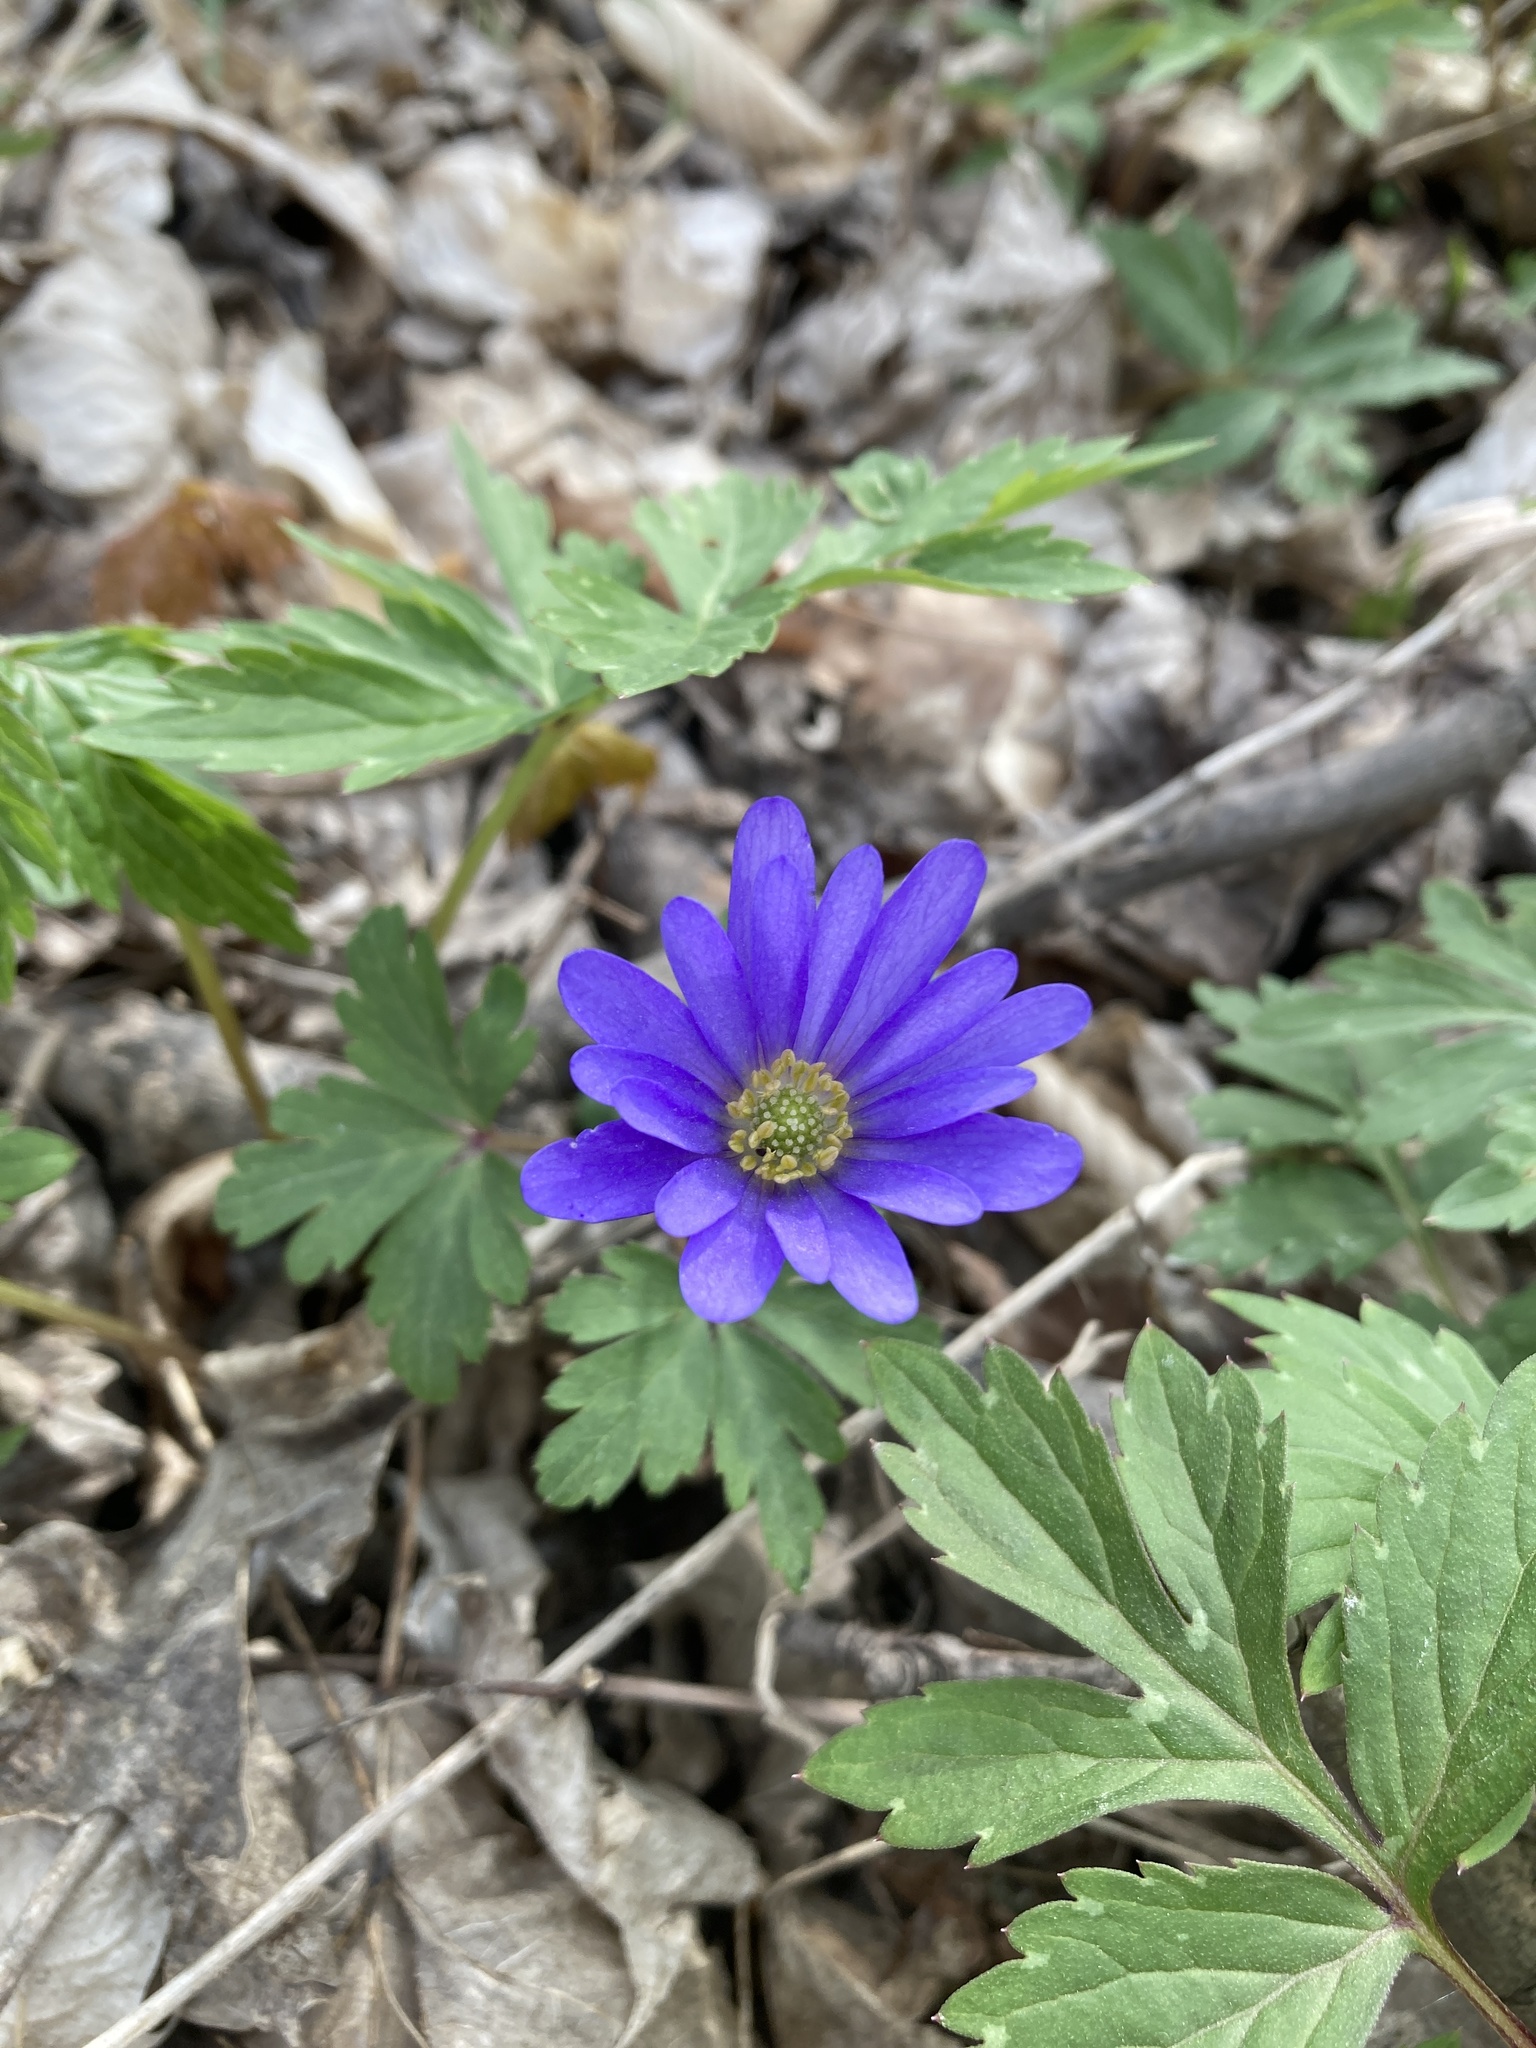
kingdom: Plantae
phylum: Tracheophyta
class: Magnoliopsida
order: Ranunculales
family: Ranunculaceae
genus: Anemone
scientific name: Anemone blanda
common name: Balkan anemone
